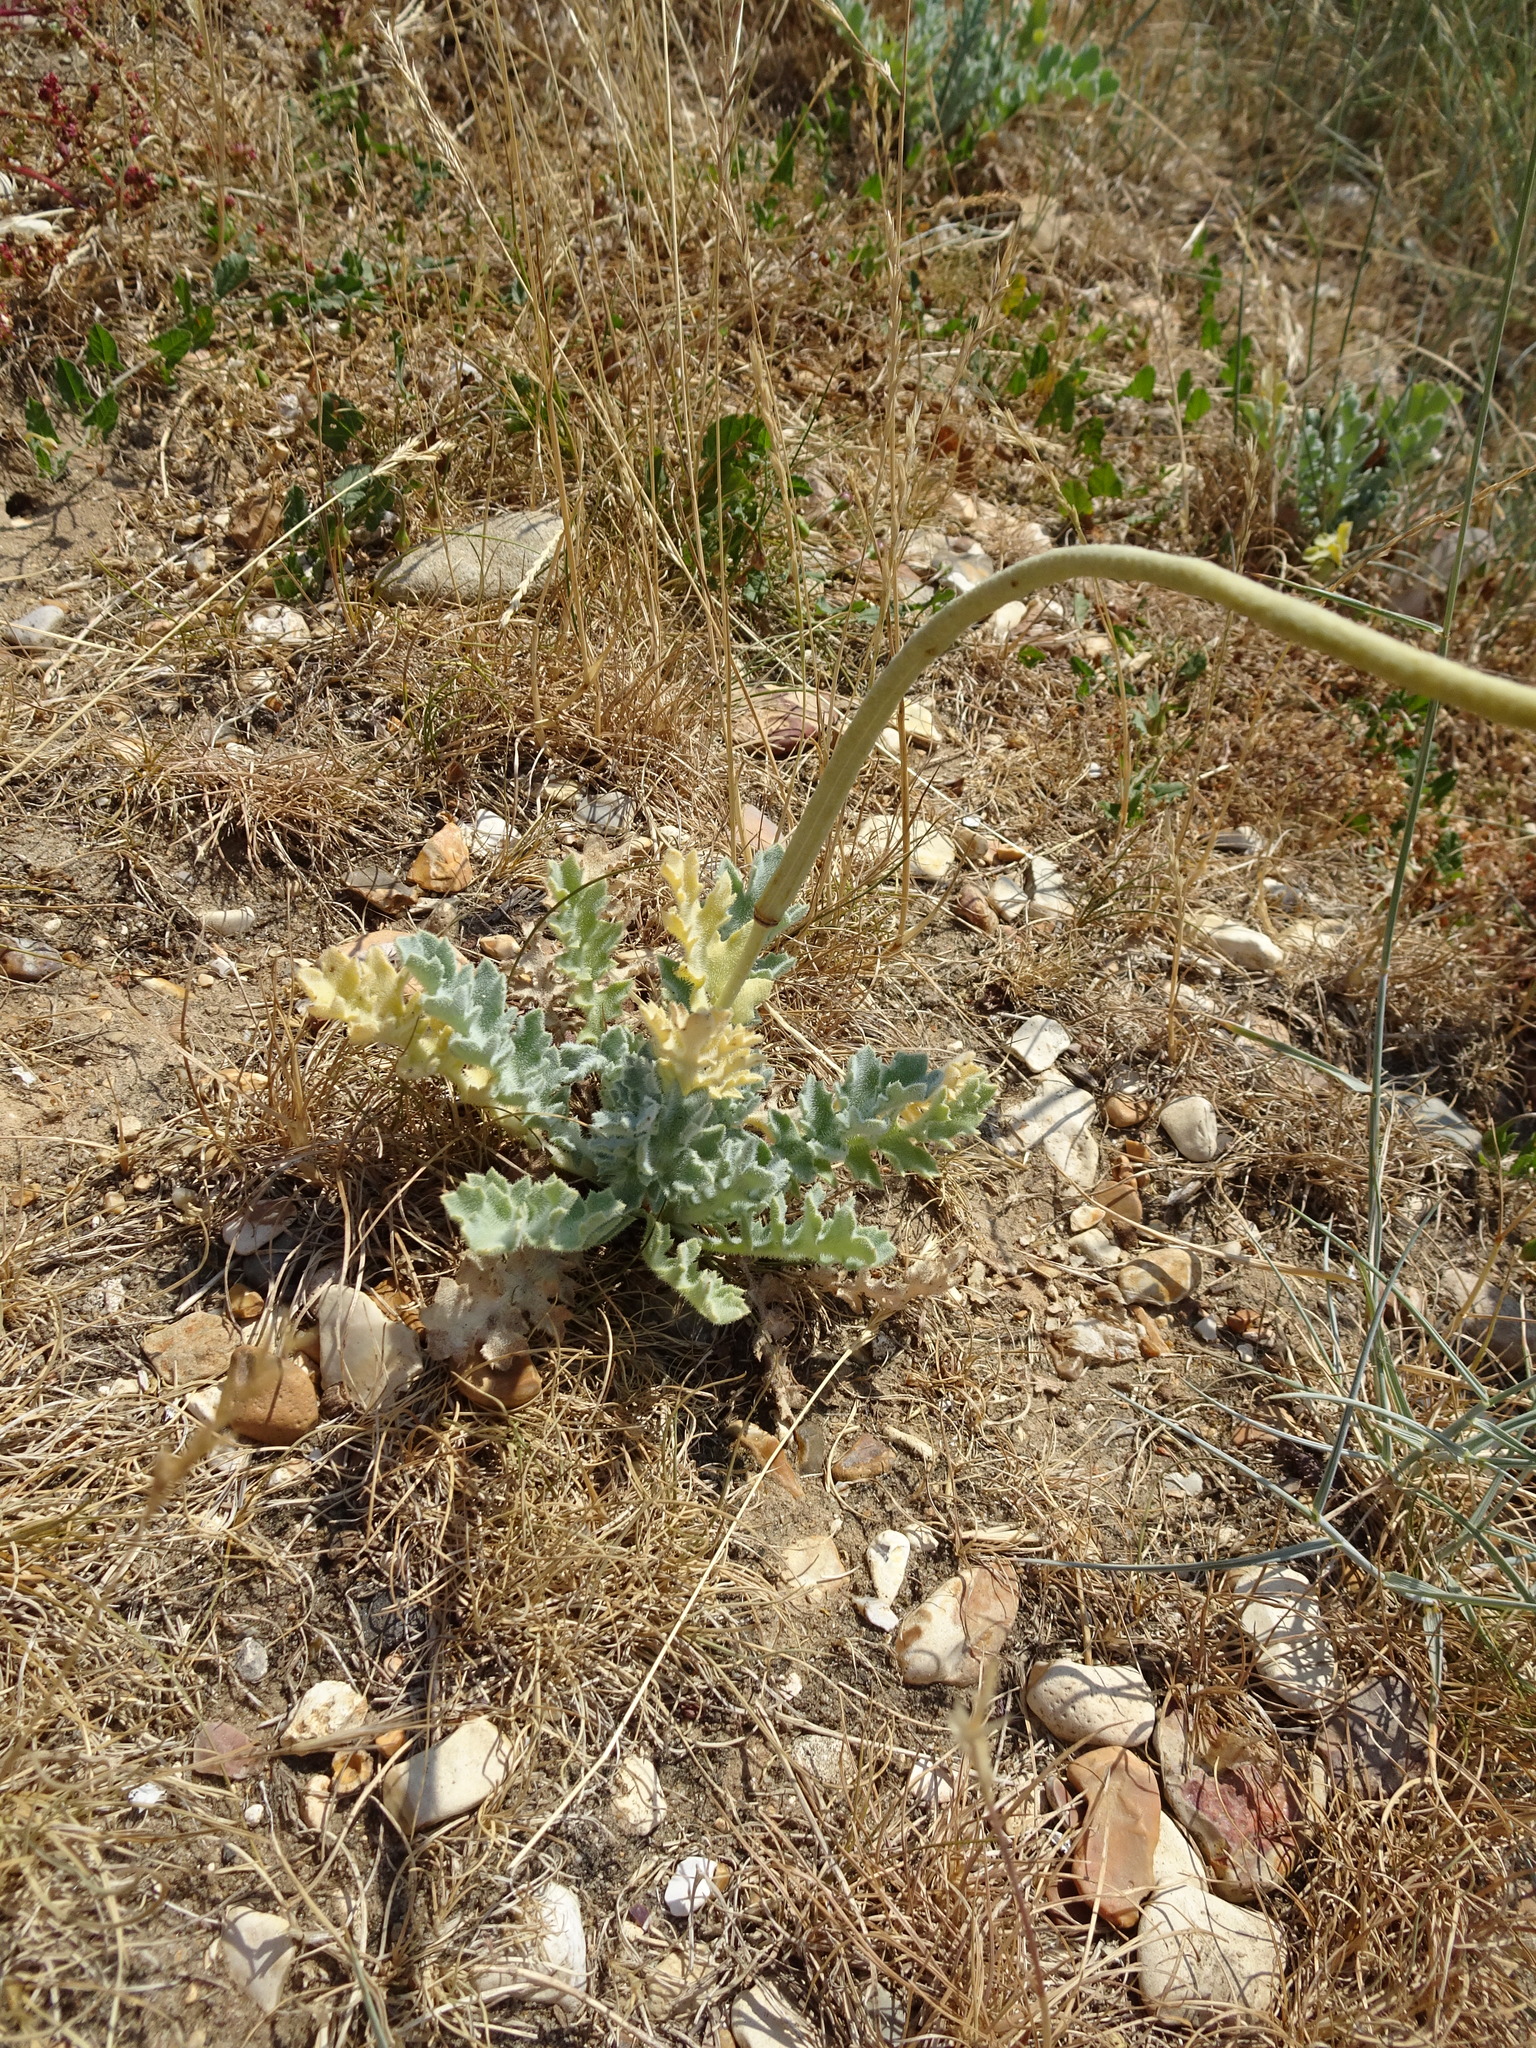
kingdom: Plantae
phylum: Tracheophyta
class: Magnoliopsida
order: Ranunculales
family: Papaveraceae
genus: Glaucium
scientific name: Glaucium flavum
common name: Yellow horned-poppy
